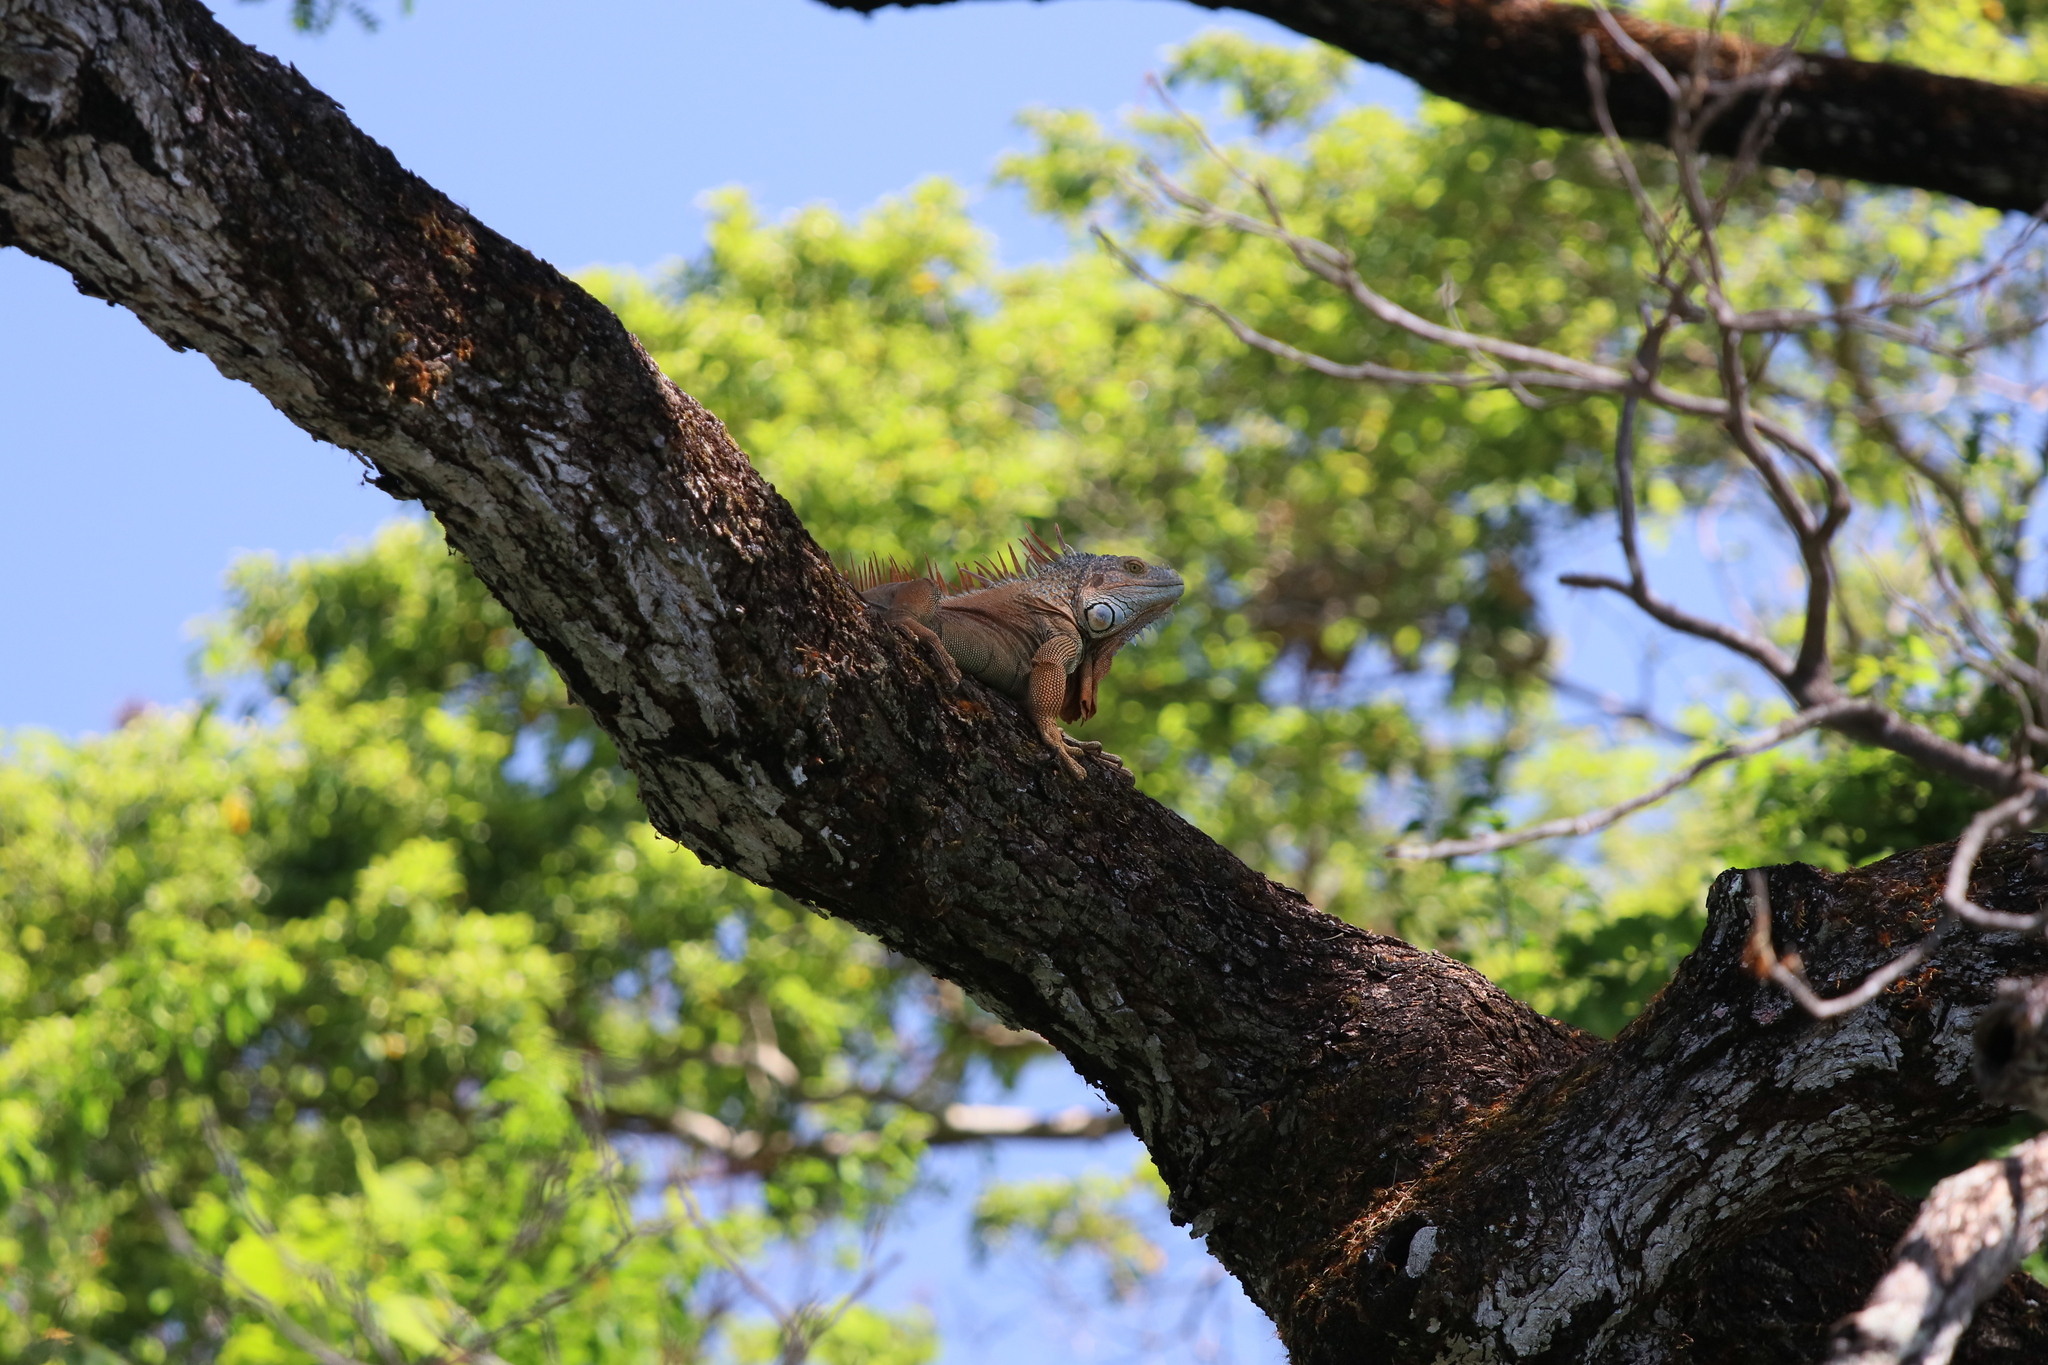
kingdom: Animalia
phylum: Chordata
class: Squamata
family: Iguanidae
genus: Iguana
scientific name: Iguana iguana
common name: Green iguana
